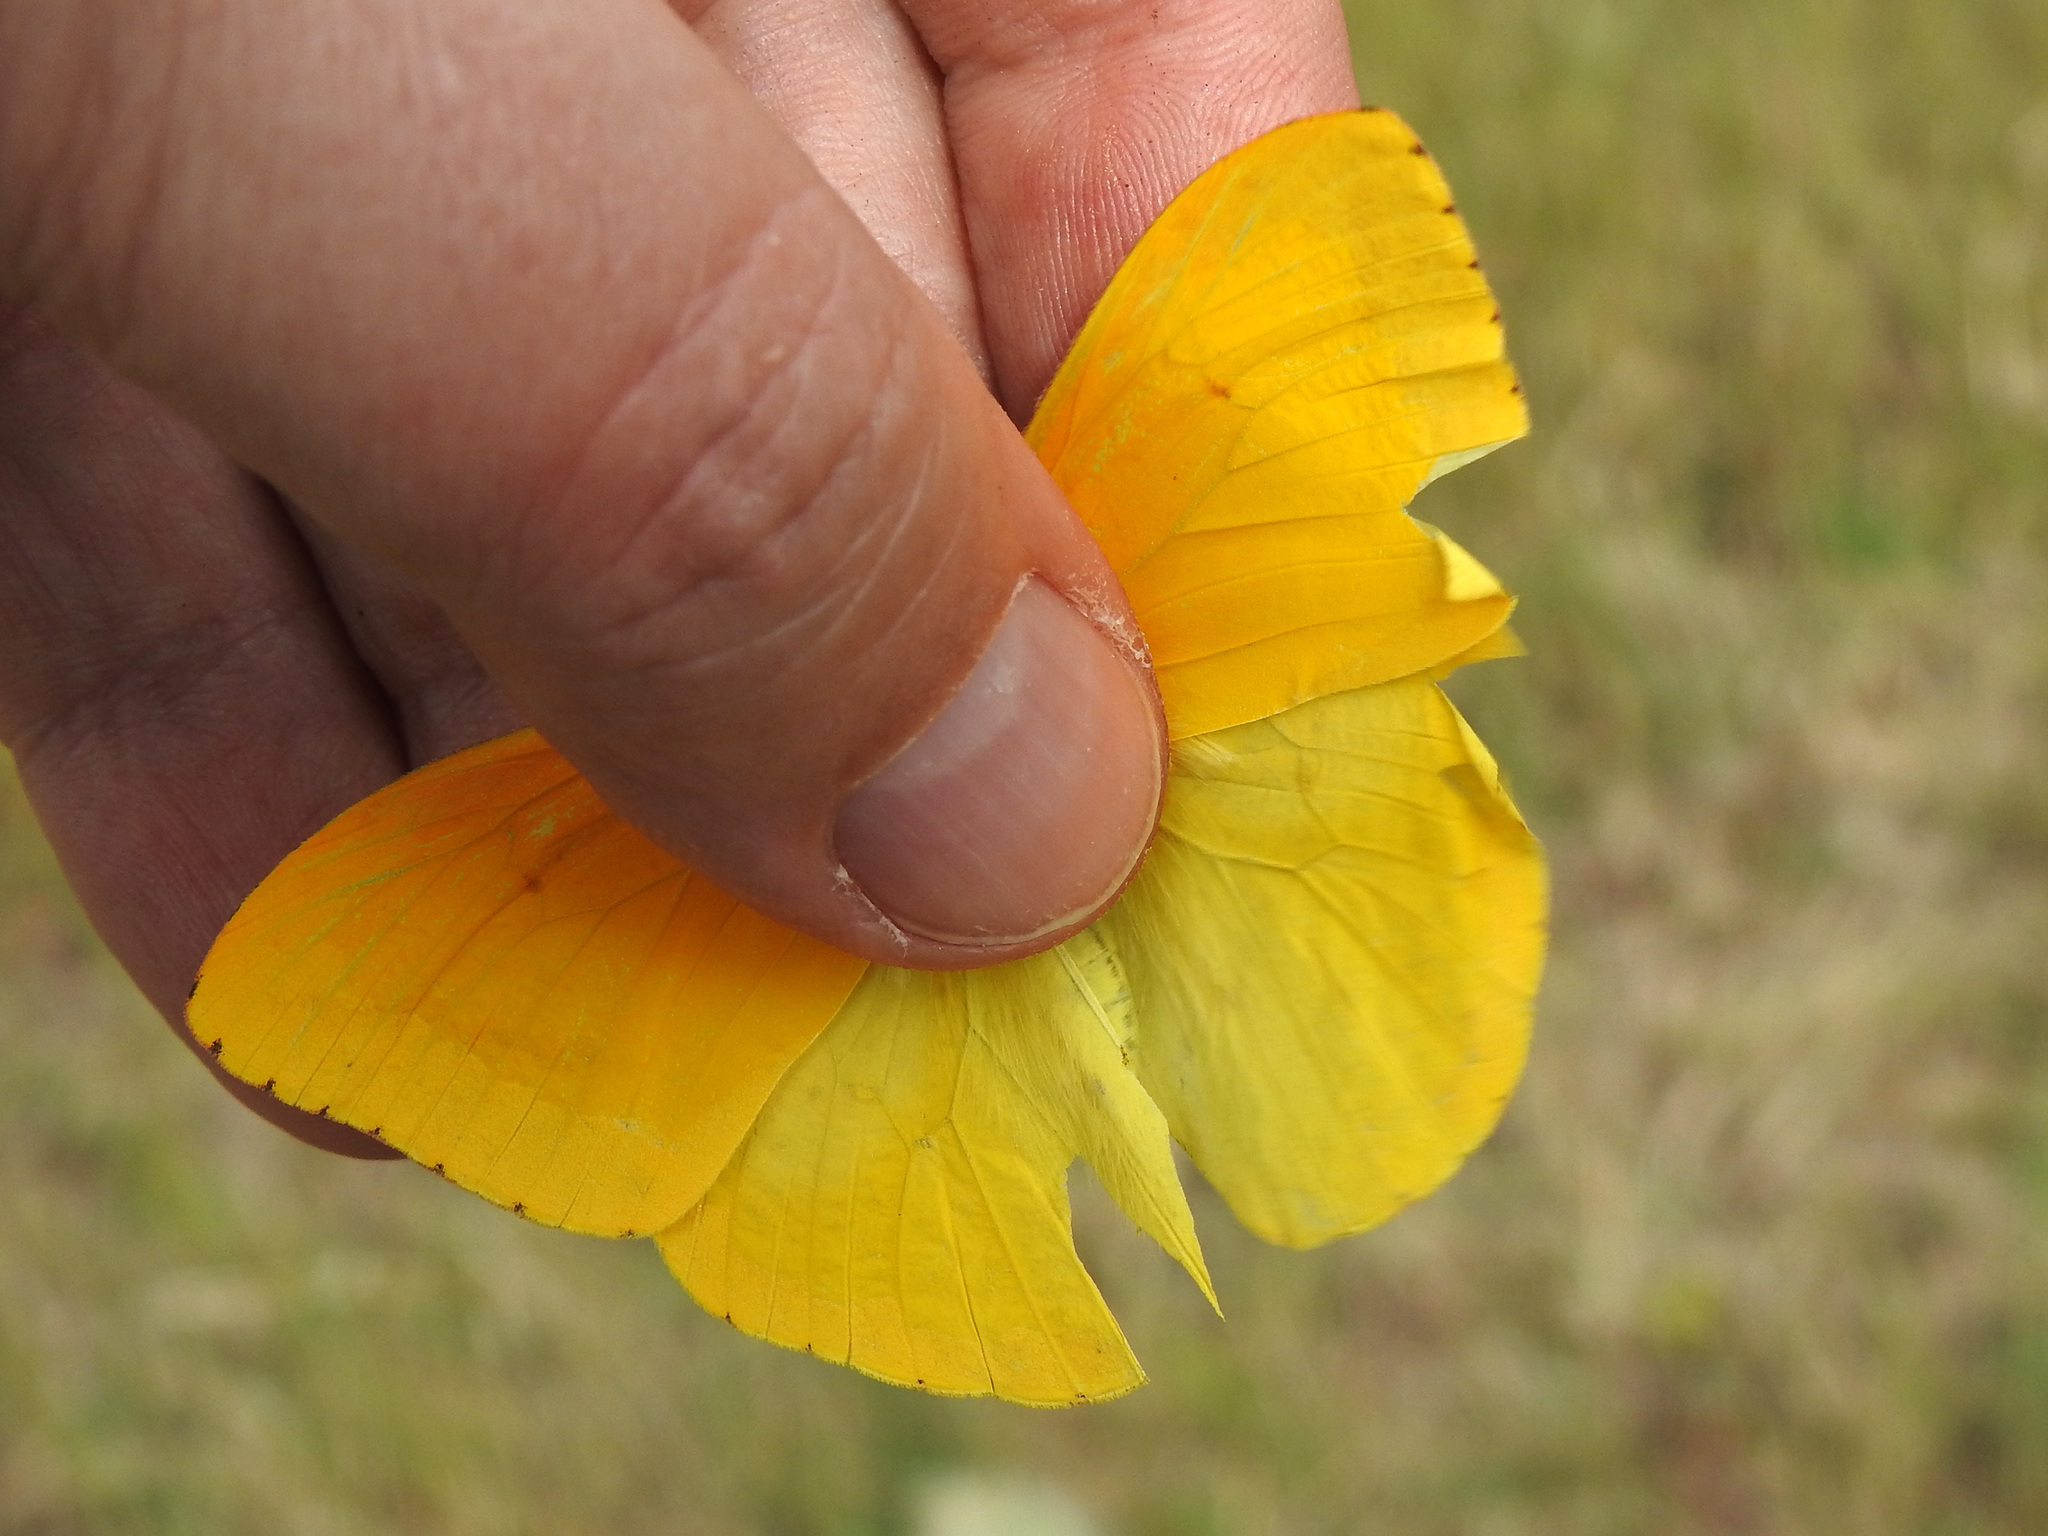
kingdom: Animalia
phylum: Arthropoda
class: Insecta
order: Lepidoptera
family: Pieridae
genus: Phoebis
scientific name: Phoebis agarithe
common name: Large orange sulphur
